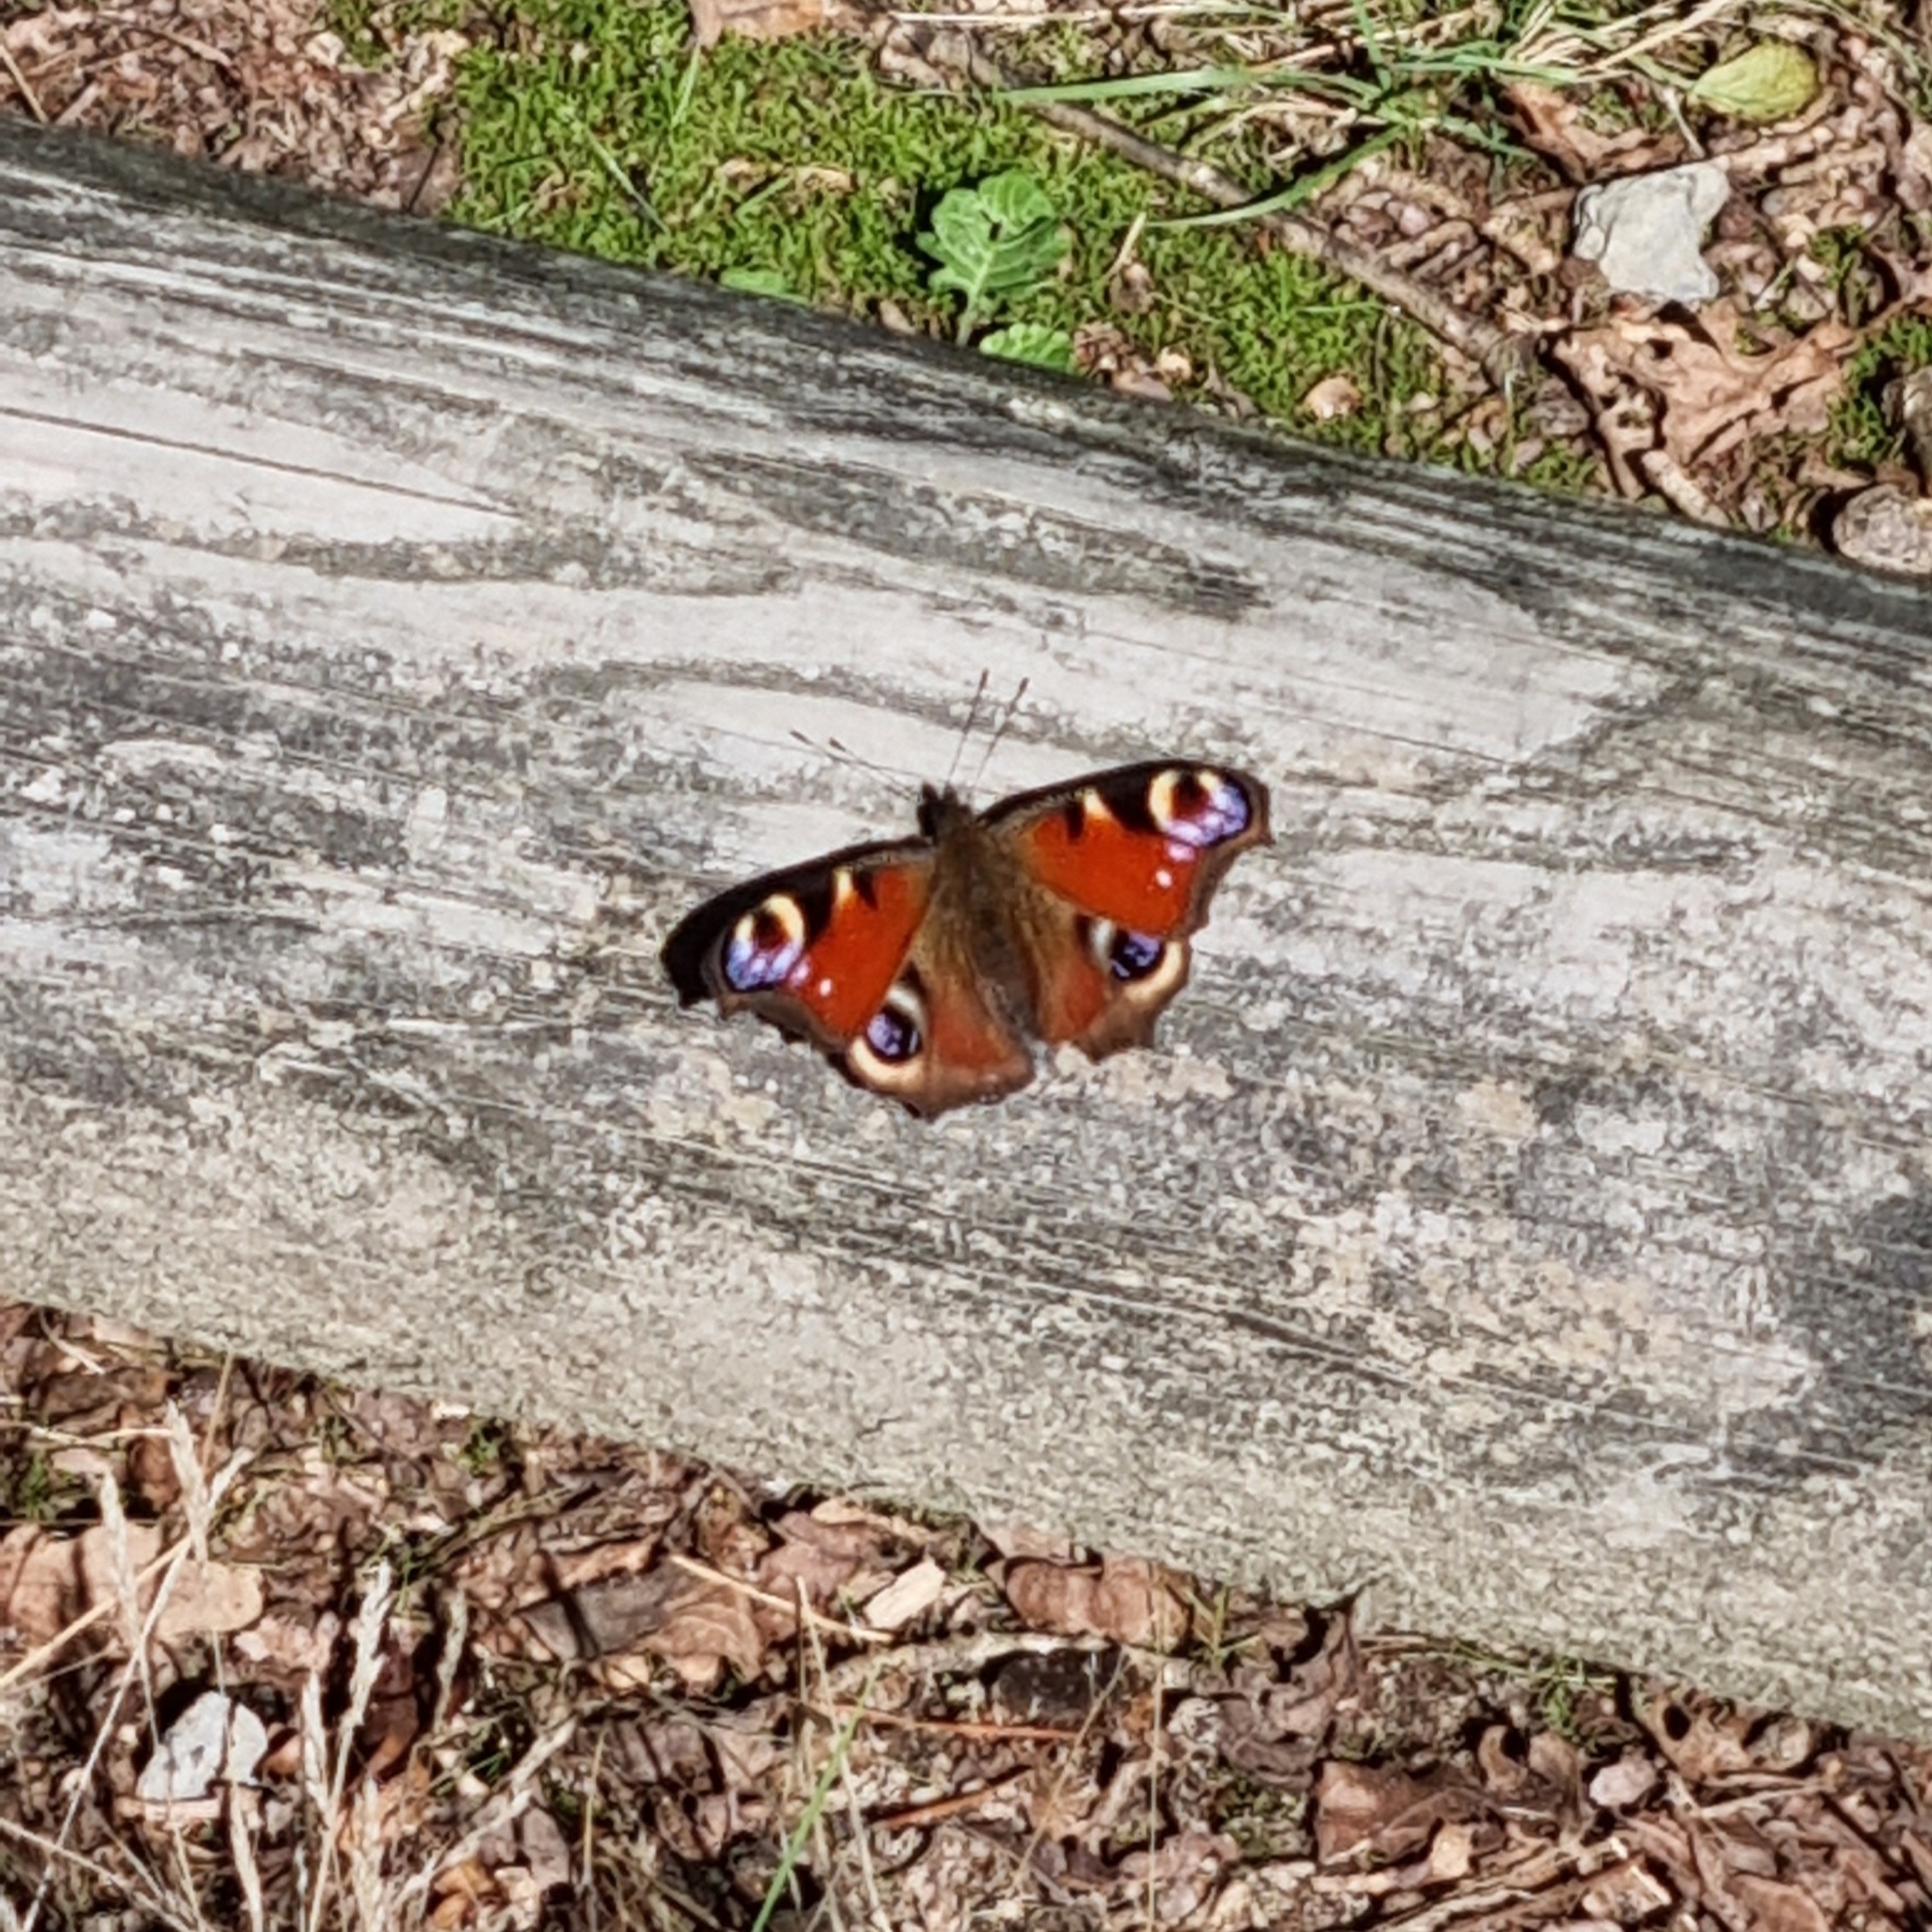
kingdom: Animalia
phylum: Arthropoda
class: Insecta
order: Lepidoptera
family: Nymphalidae
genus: Aglais
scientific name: Aglais io
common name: Peacock
